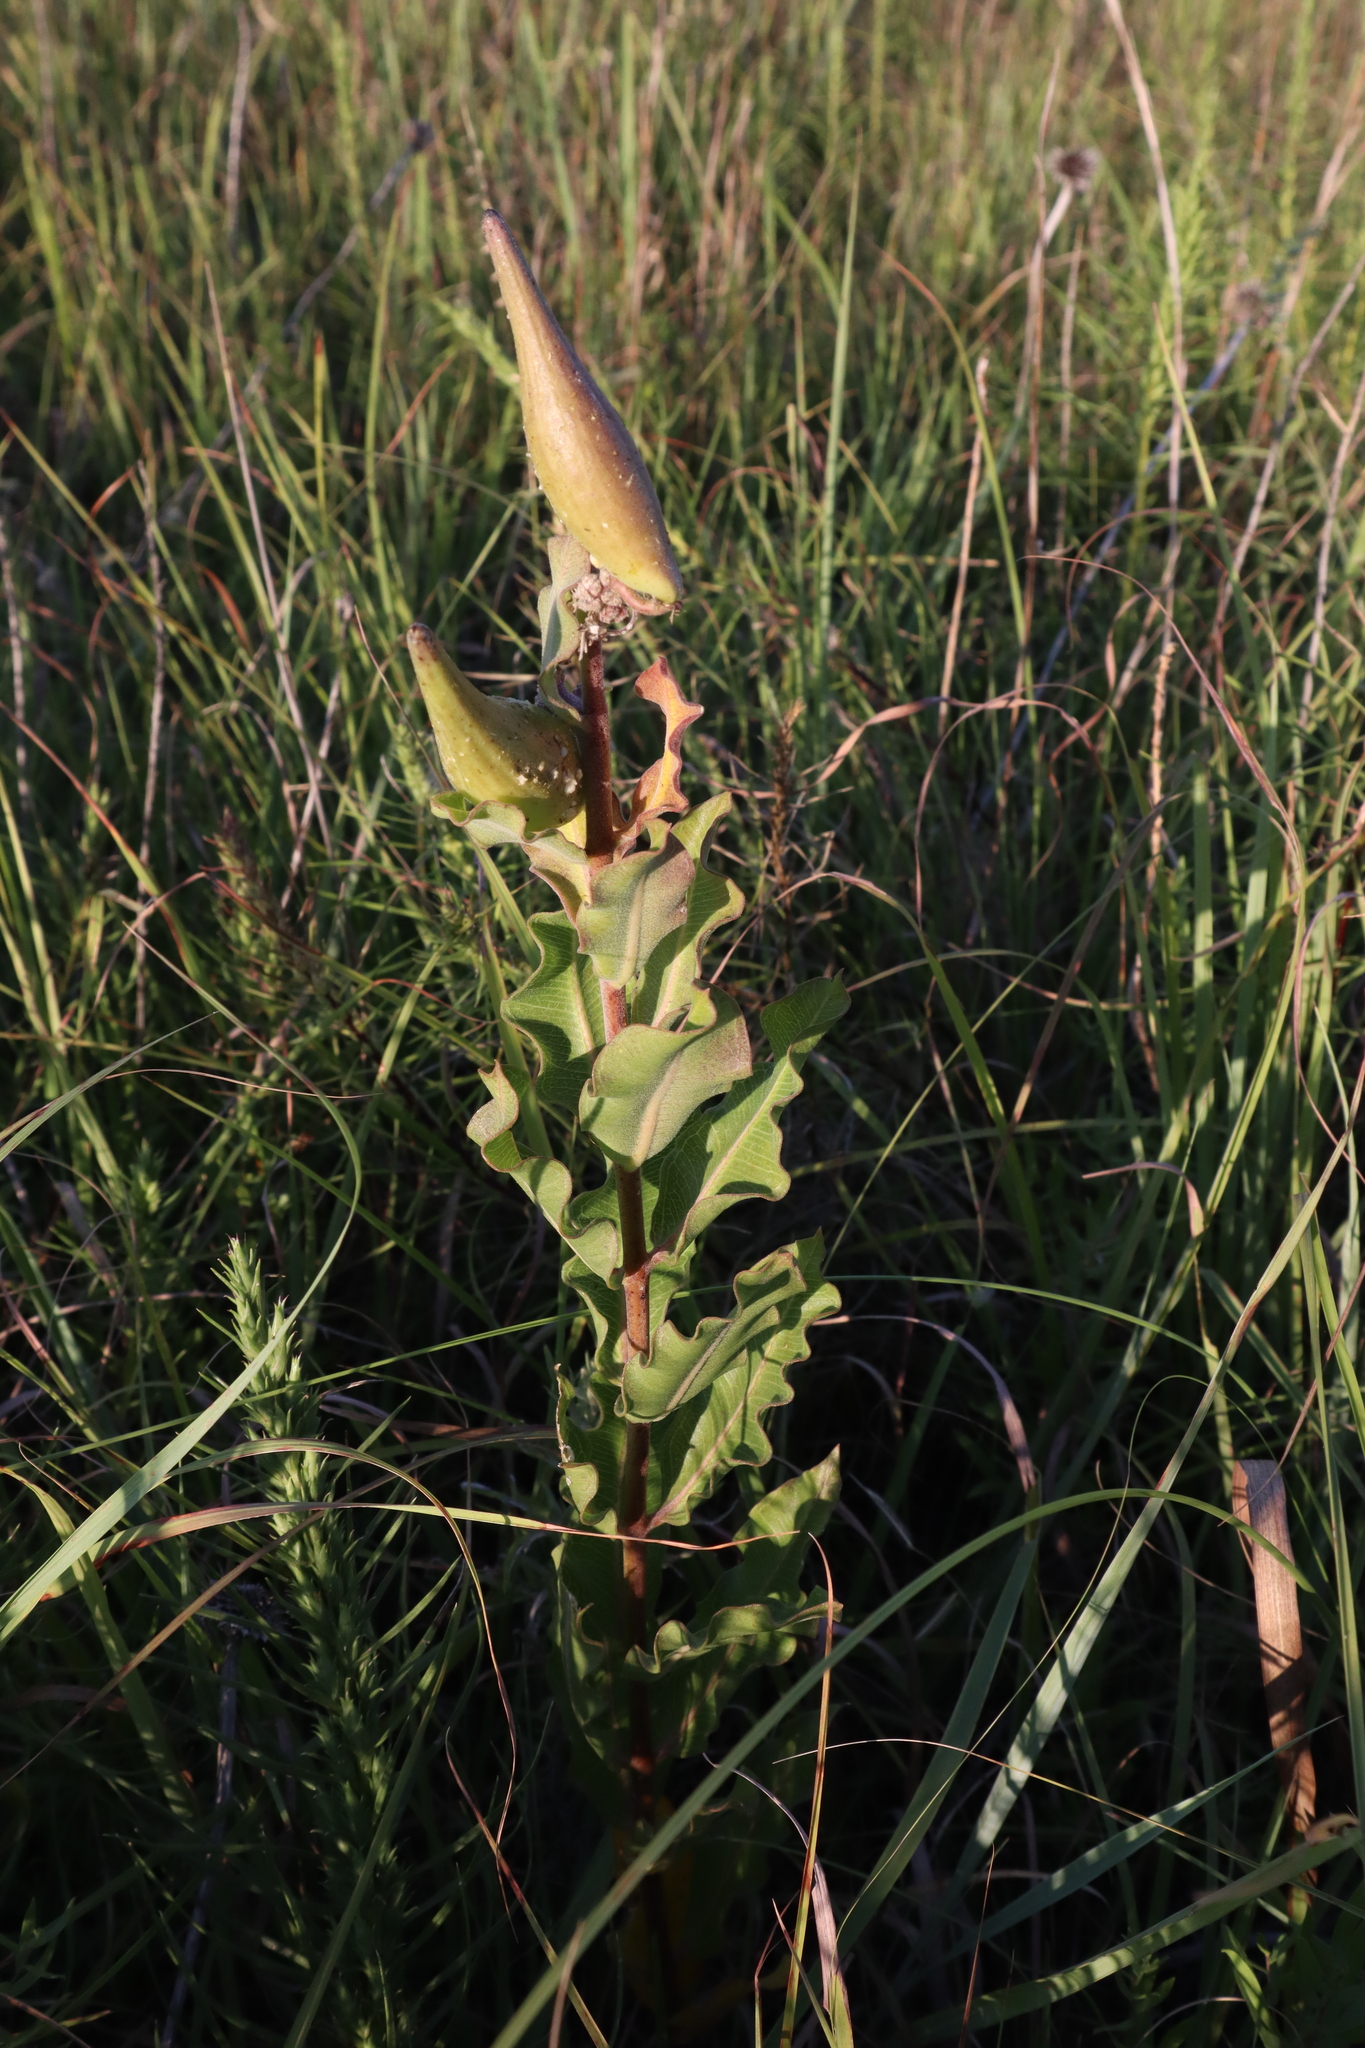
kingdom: Plantae
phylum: Tracheophyta
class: Magnoliopsida
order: Gentianales
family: Apocynaceae
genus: Asclepias
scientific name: Asclepias viridiflora
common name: Green comet milkweed
